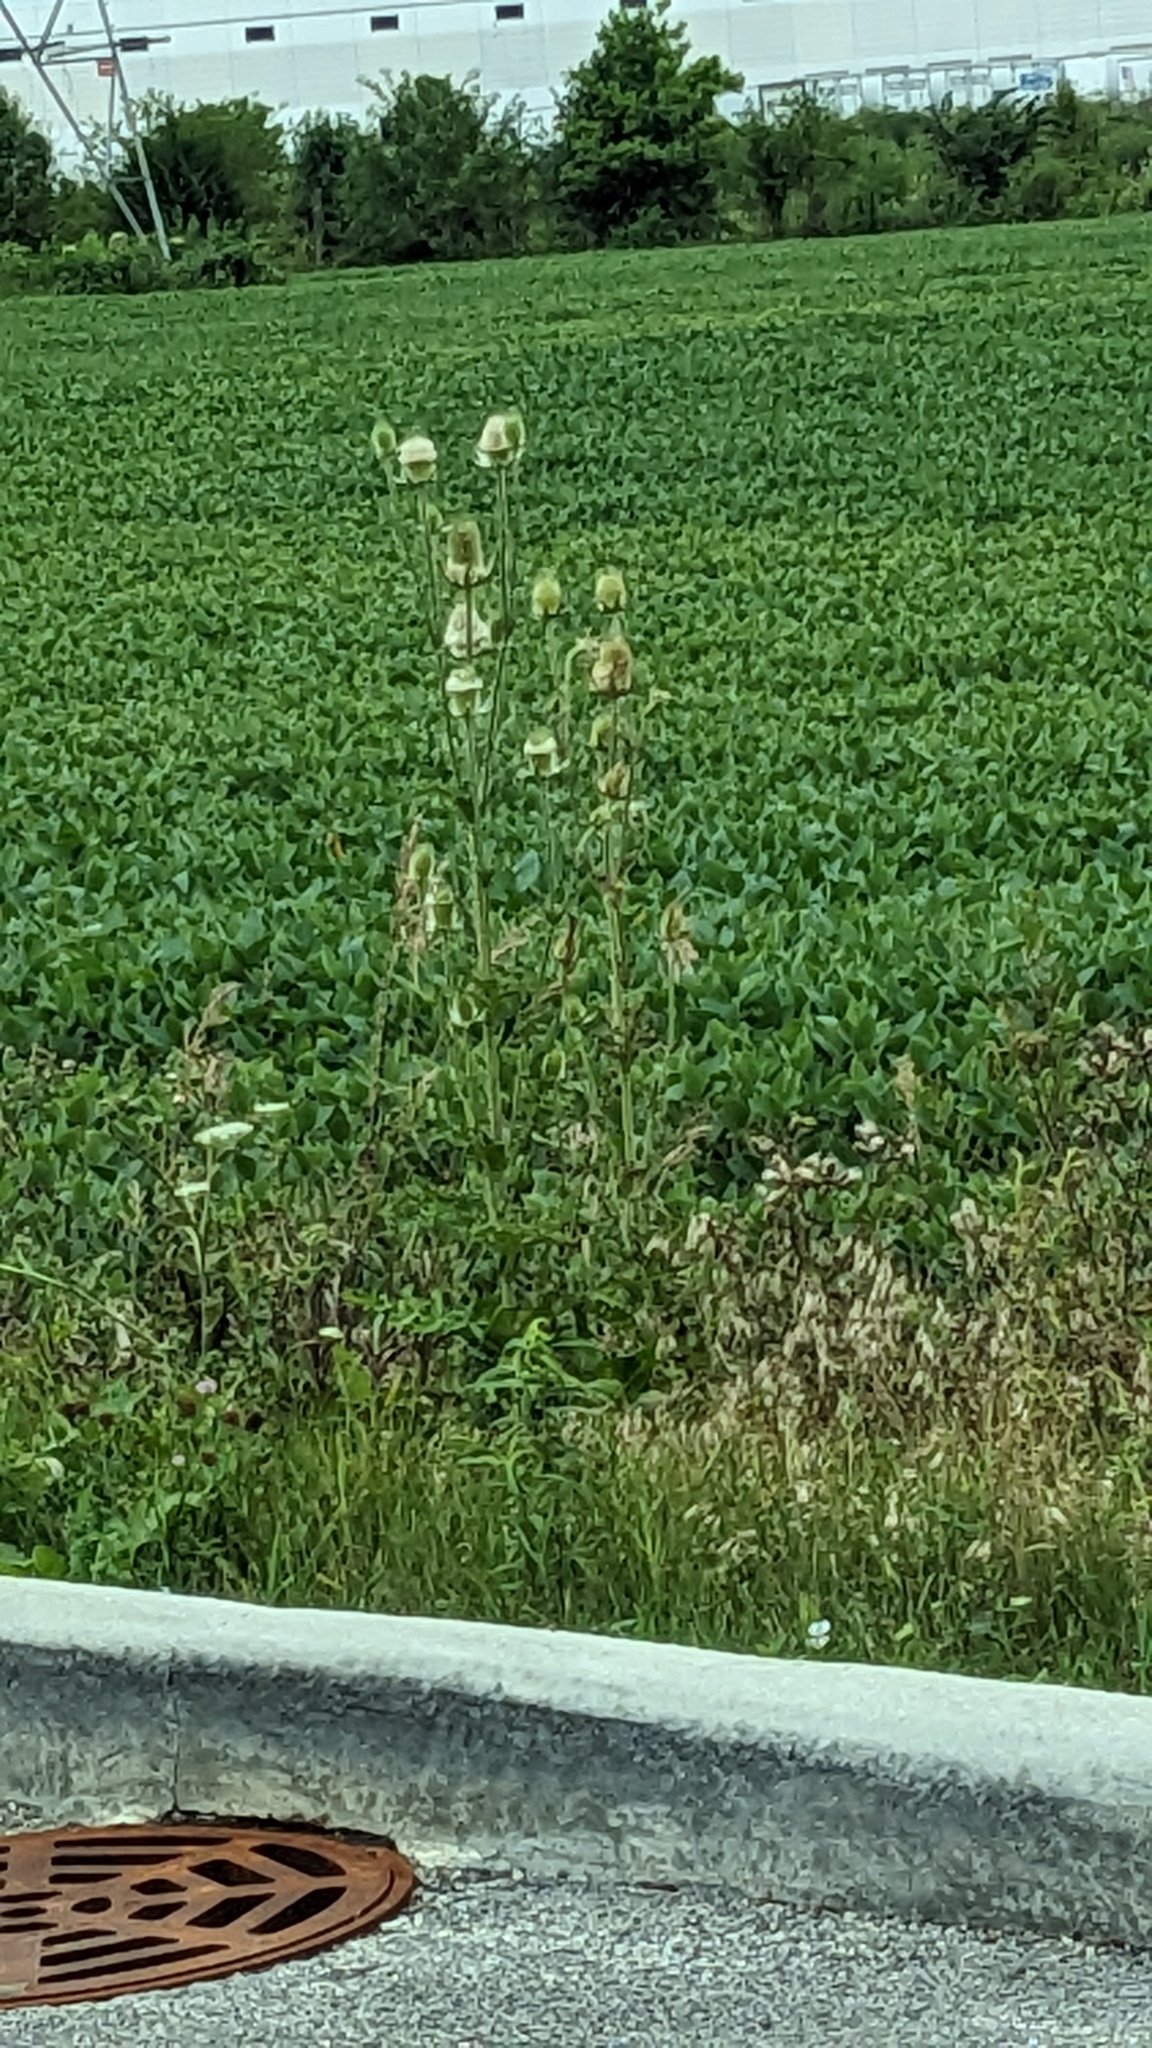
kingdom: Plantae
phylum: Tracheophyta
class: Magnoliopsida
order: Dipsacales
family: Caprifoliaceae
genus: Dipsacus
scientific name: Dipsacus laciniatus
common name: Cut-leaved teasel
